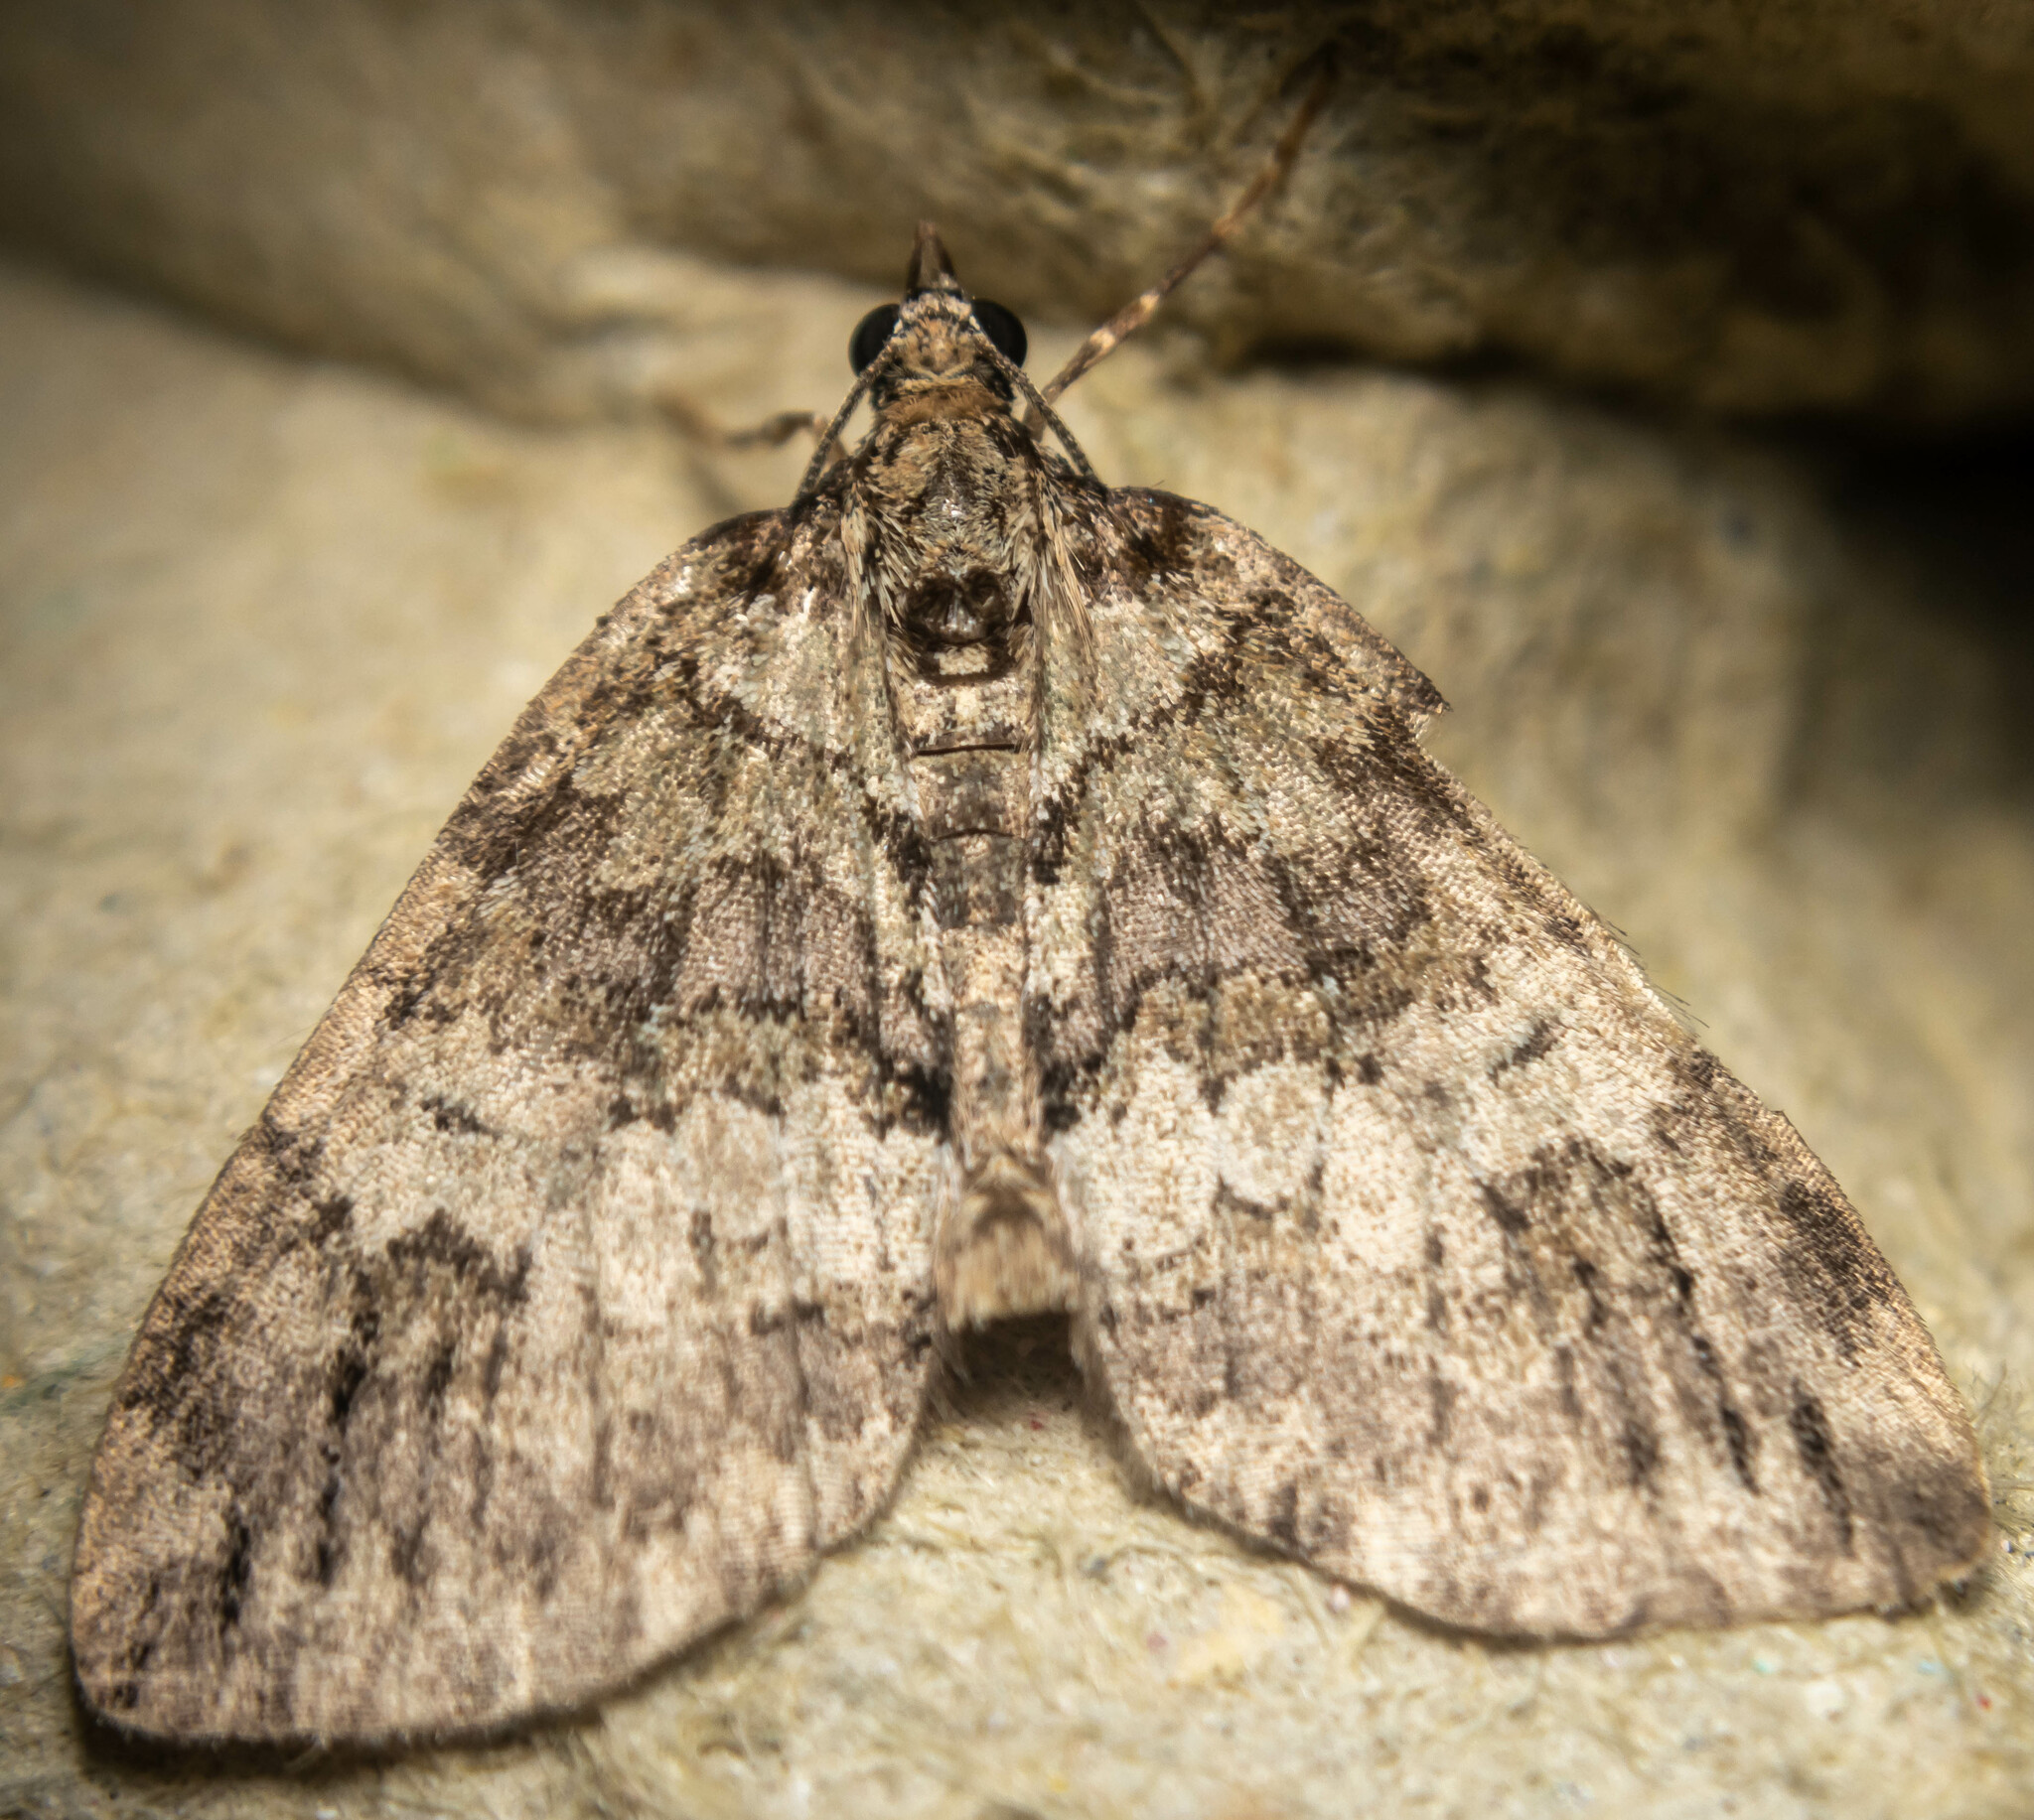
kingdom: Animalia
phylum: Arthropoda
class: Insecta
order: Lepidoptera
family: Geometridae
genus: Hydriomena
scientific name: Hydriomena impluviata
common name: May highflyer
